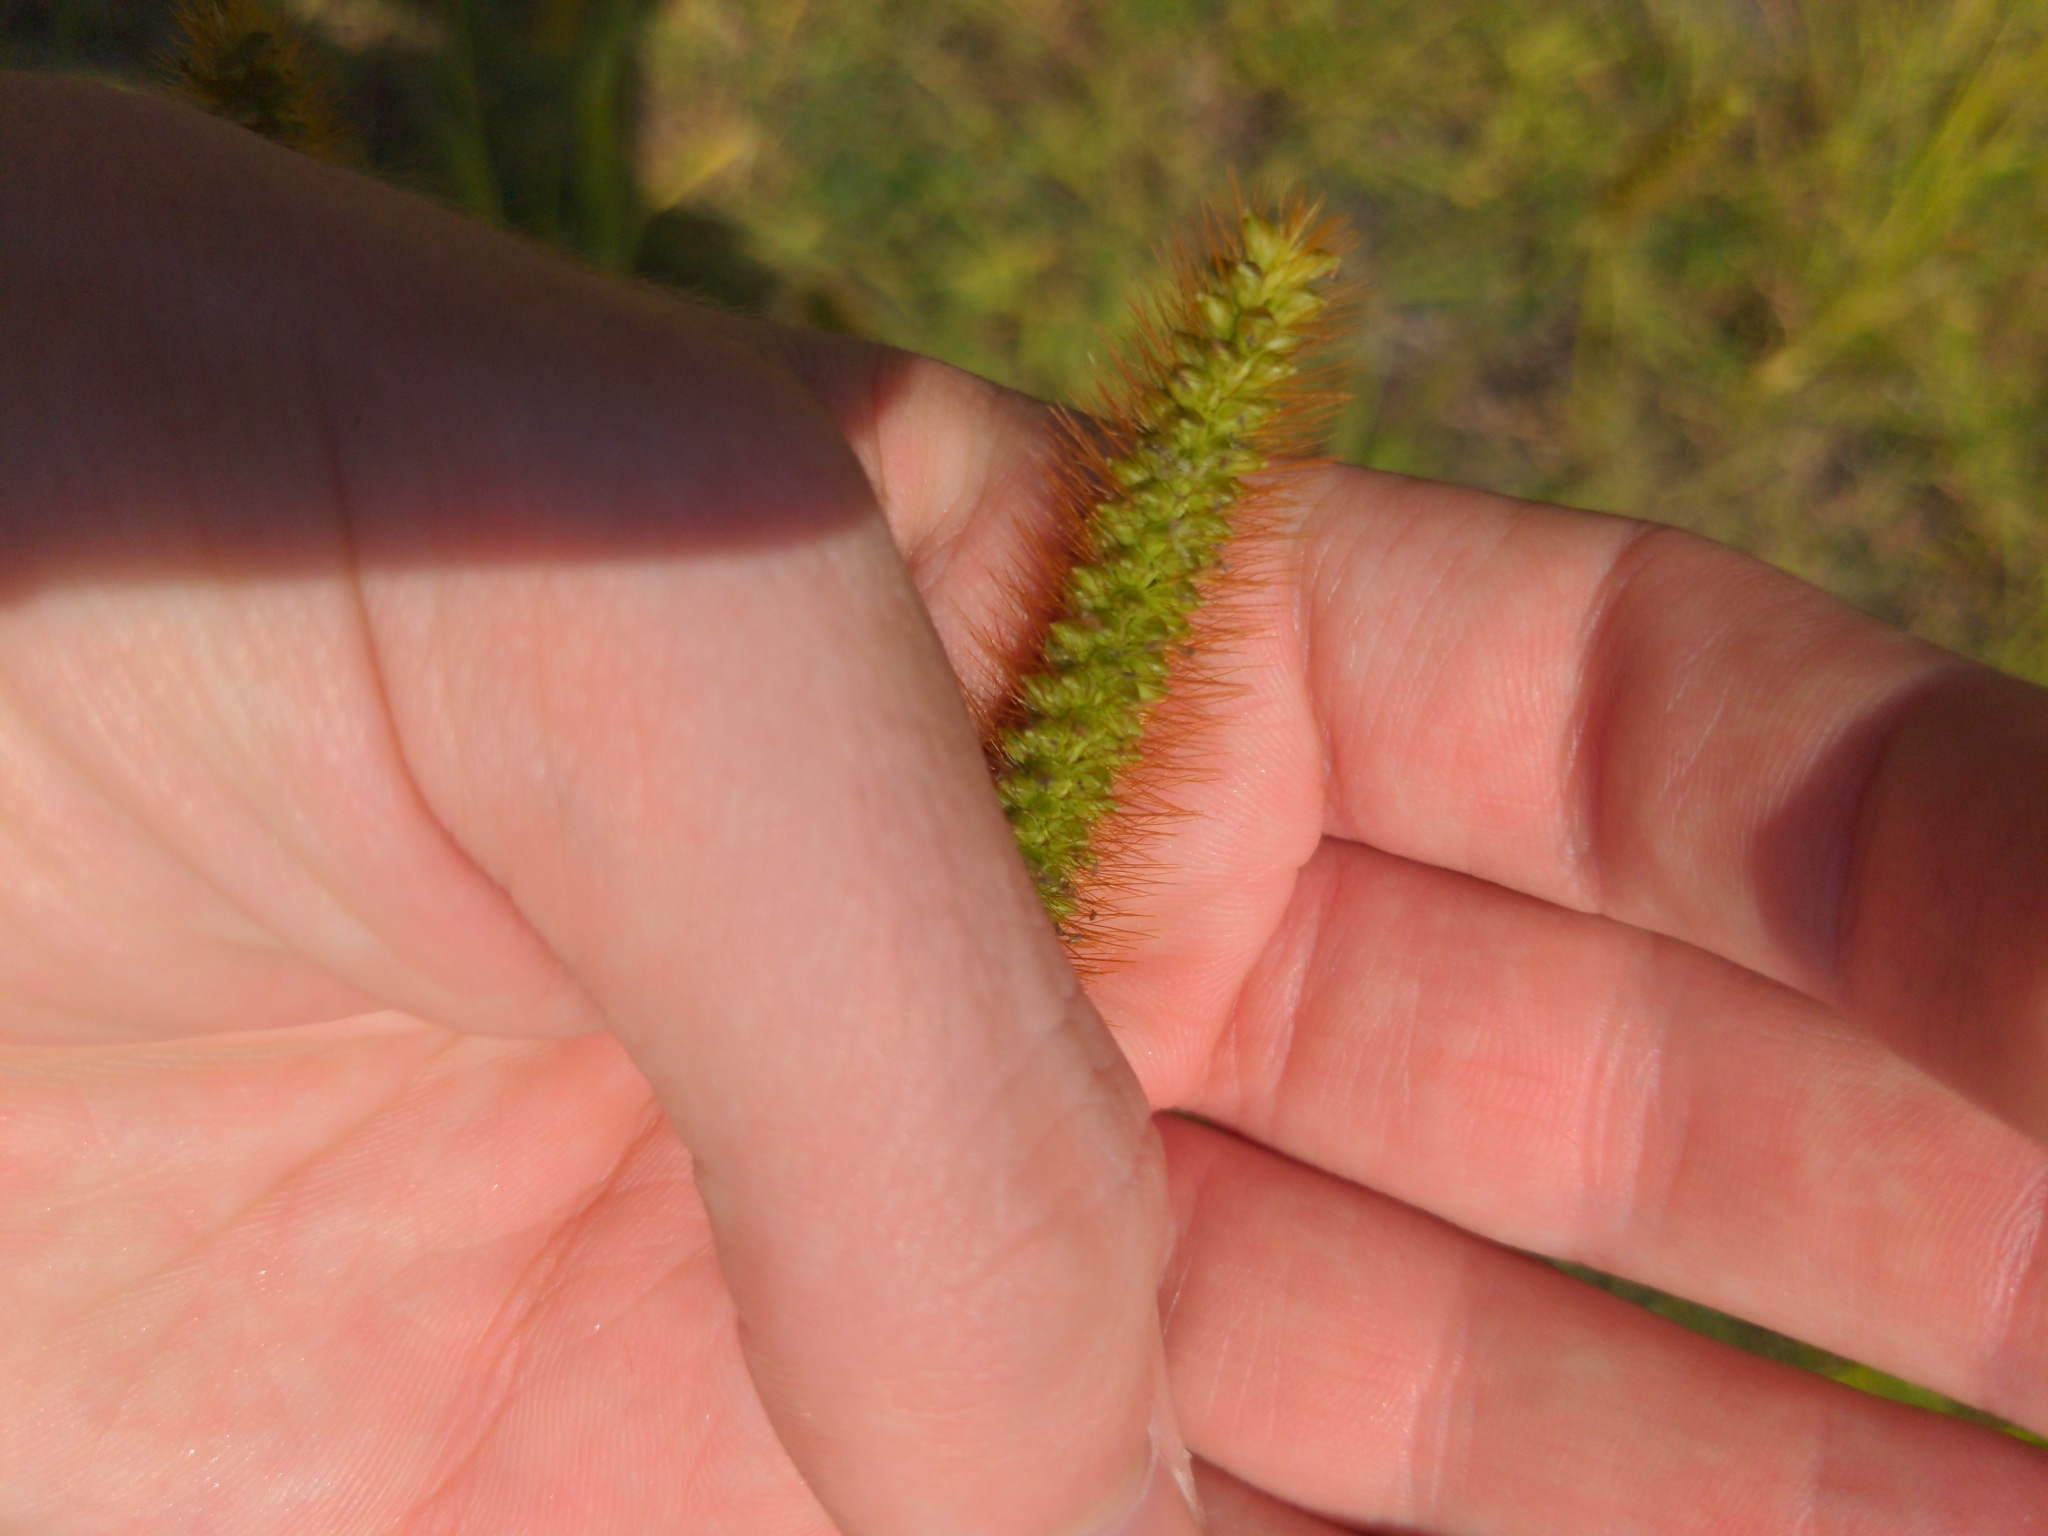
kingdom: Plantae
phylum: Tracheophyta
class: Liliopsida
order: Poales
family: Poaceae
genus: Setaria
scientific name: Setaria pumila
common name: Yellow bristle-grass
